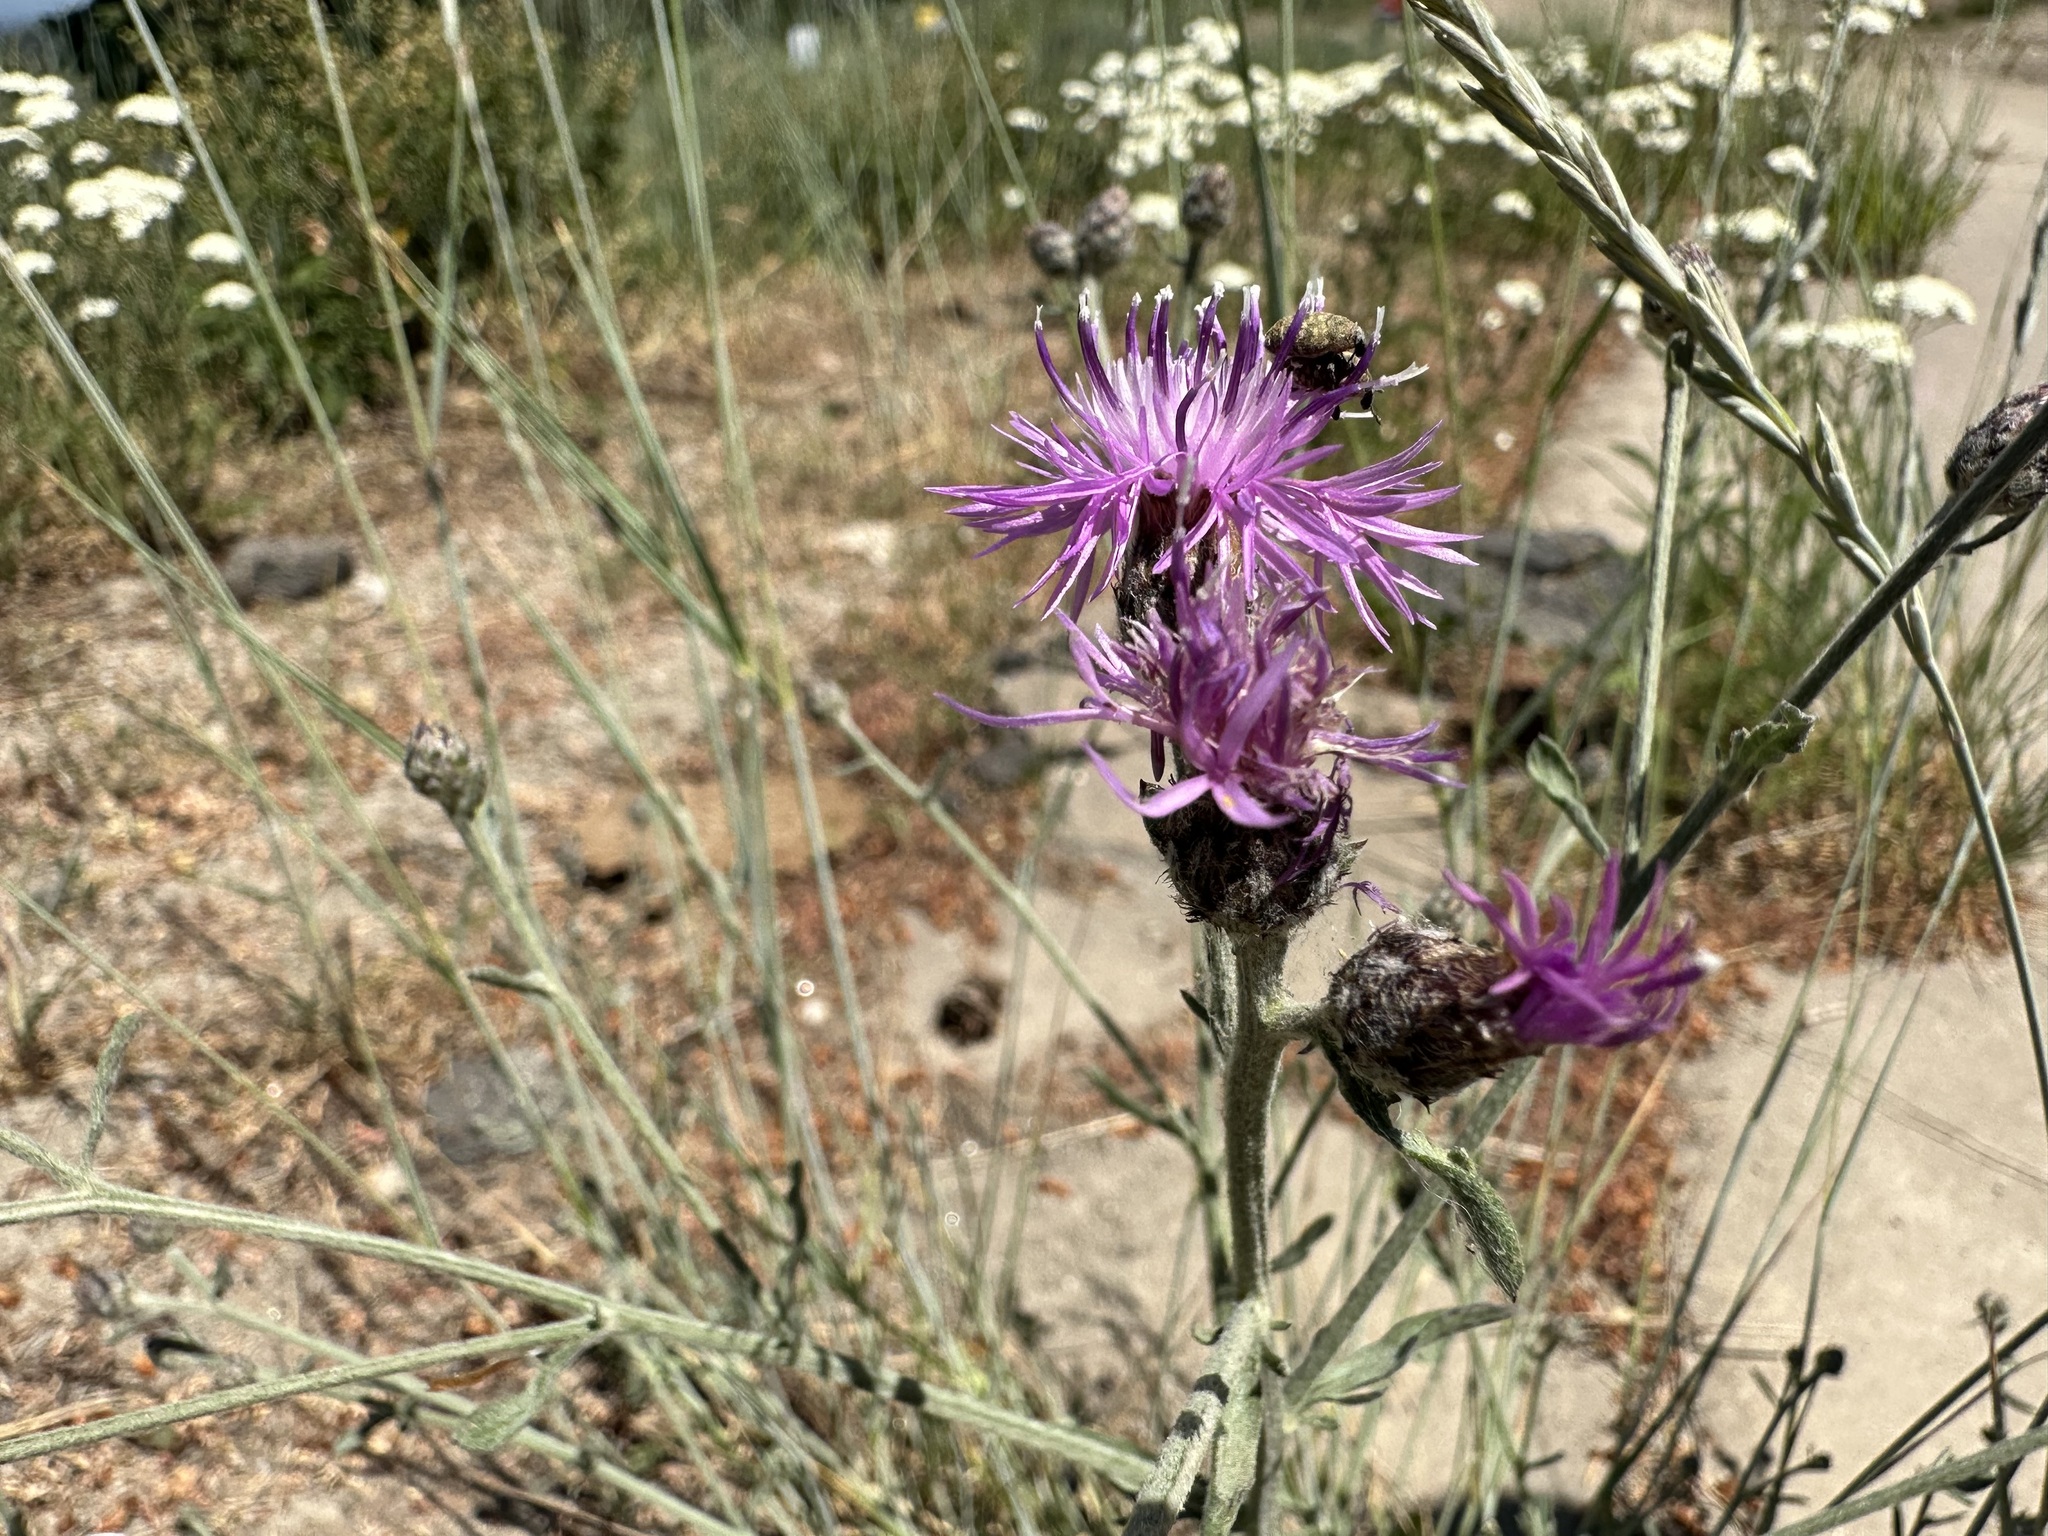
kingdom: Plantae
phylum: Tracheophyta
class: Magnoliopsida
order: Asterales
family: Asteraceae
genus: Centaurea
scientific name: Centaurea stoebe
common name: Spotted knapweed
